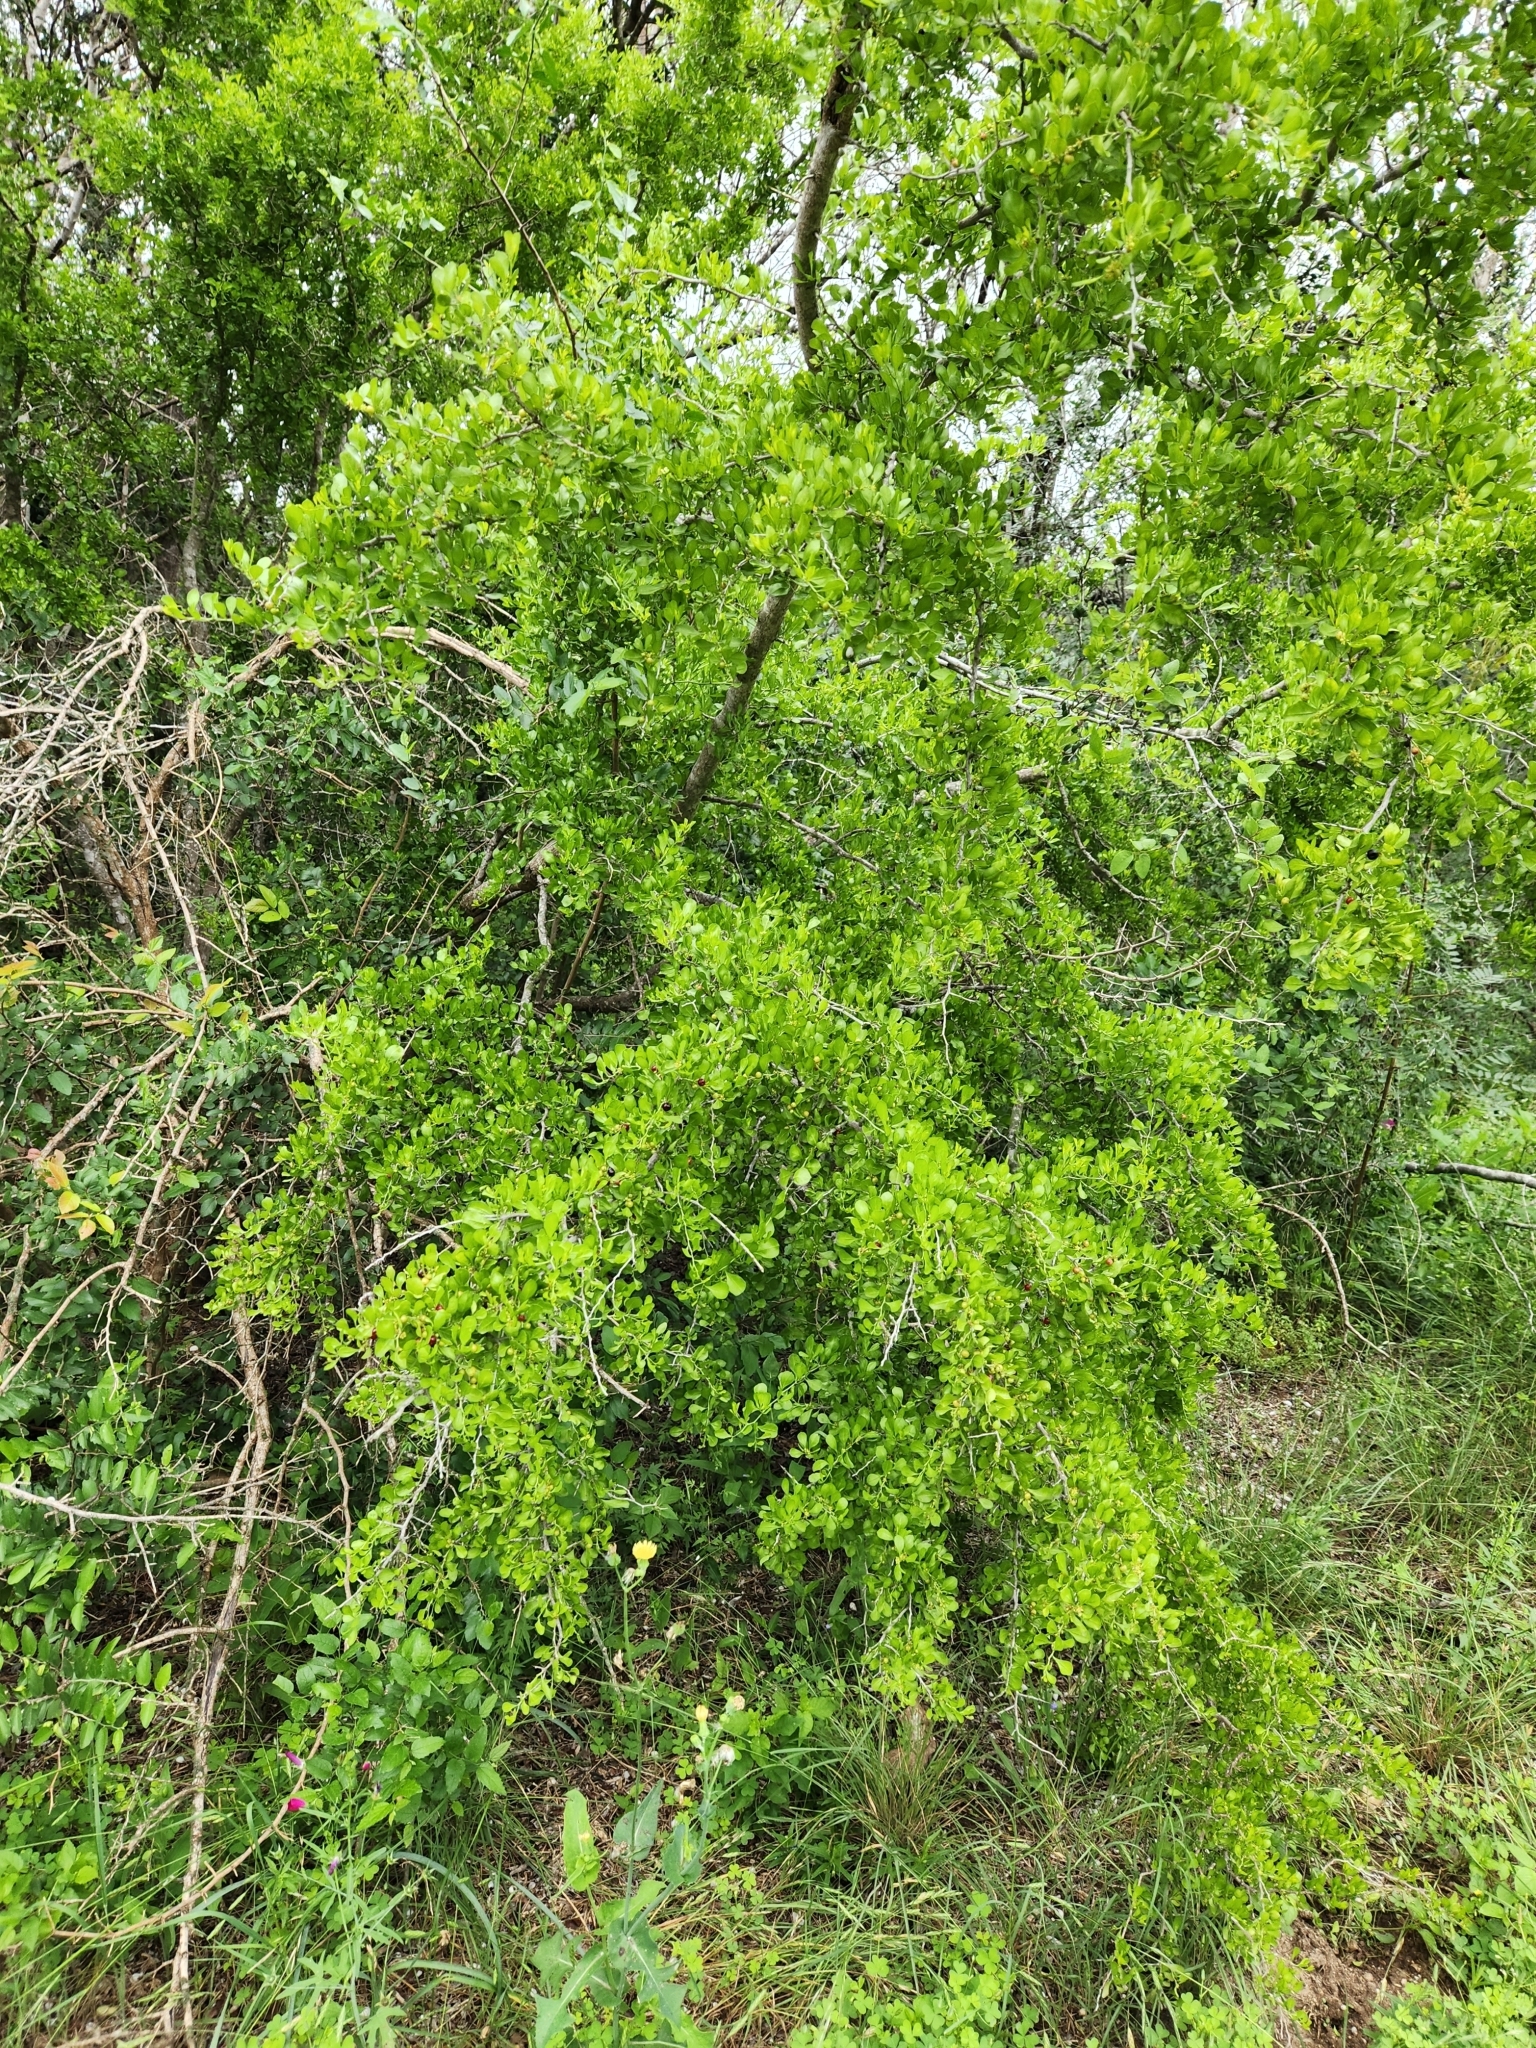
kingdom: Plantae
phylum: Tracheophyta
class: Magnoliopsida
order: Rosales
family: Rhamnaceae
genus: Condalia
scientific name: Condalia hookeri
